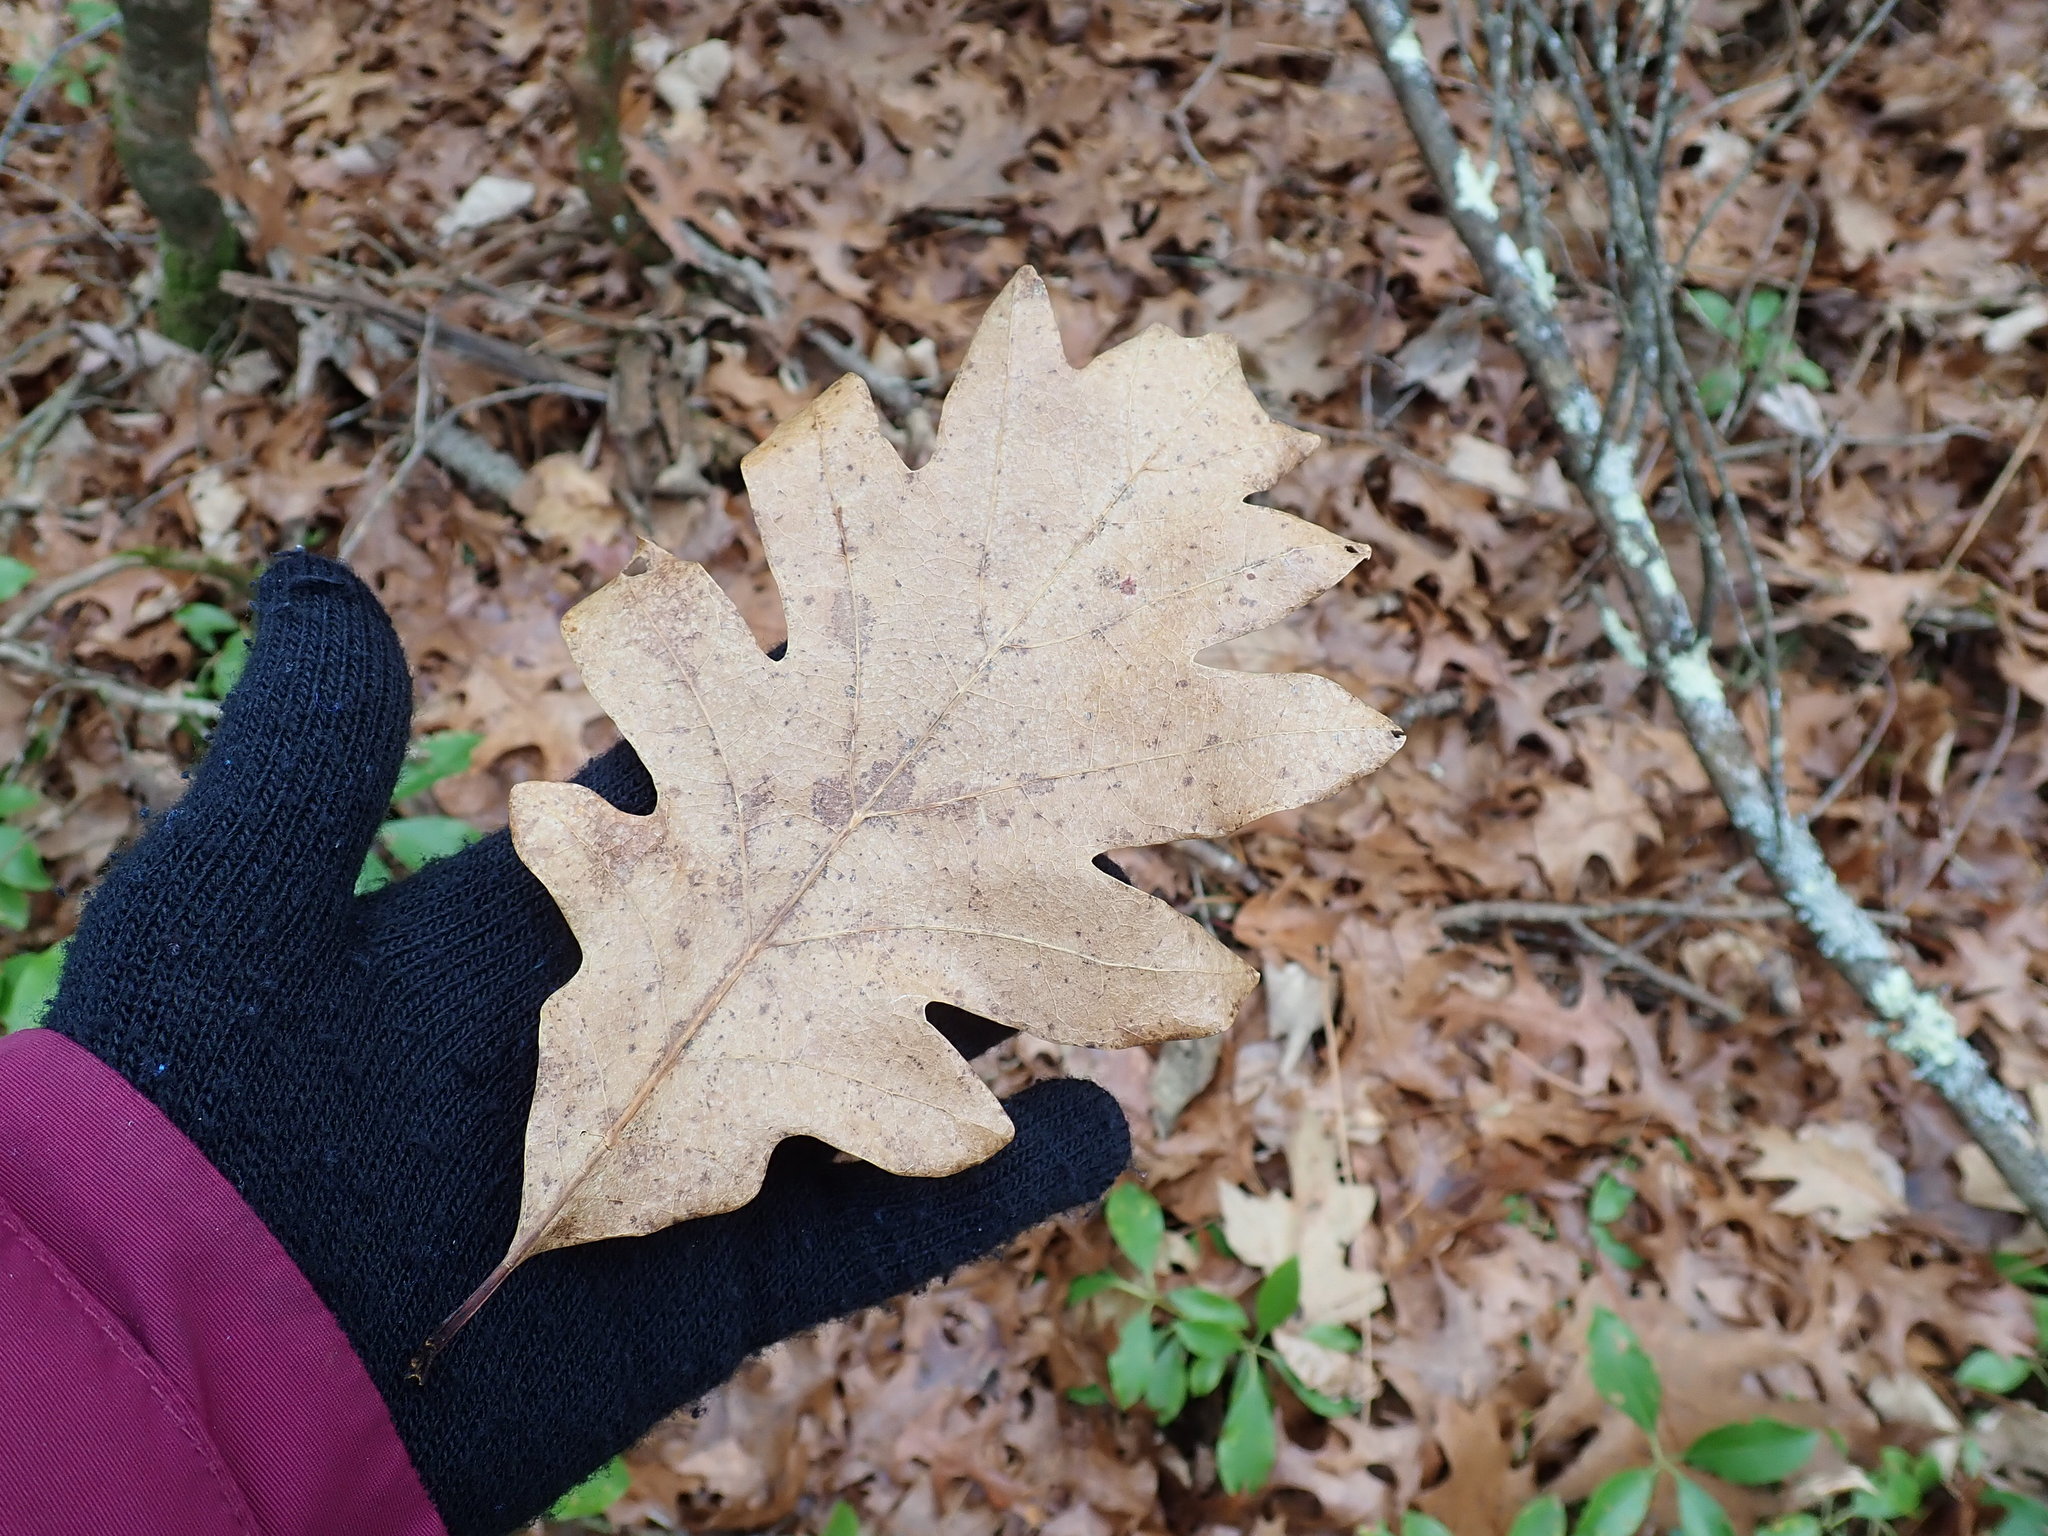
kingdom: Plantae
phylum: Tracheophyta
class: Magnoliopsida
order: Fagales
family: Fagaceae
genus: Quercus
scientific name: Quercus alba
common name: White oak
